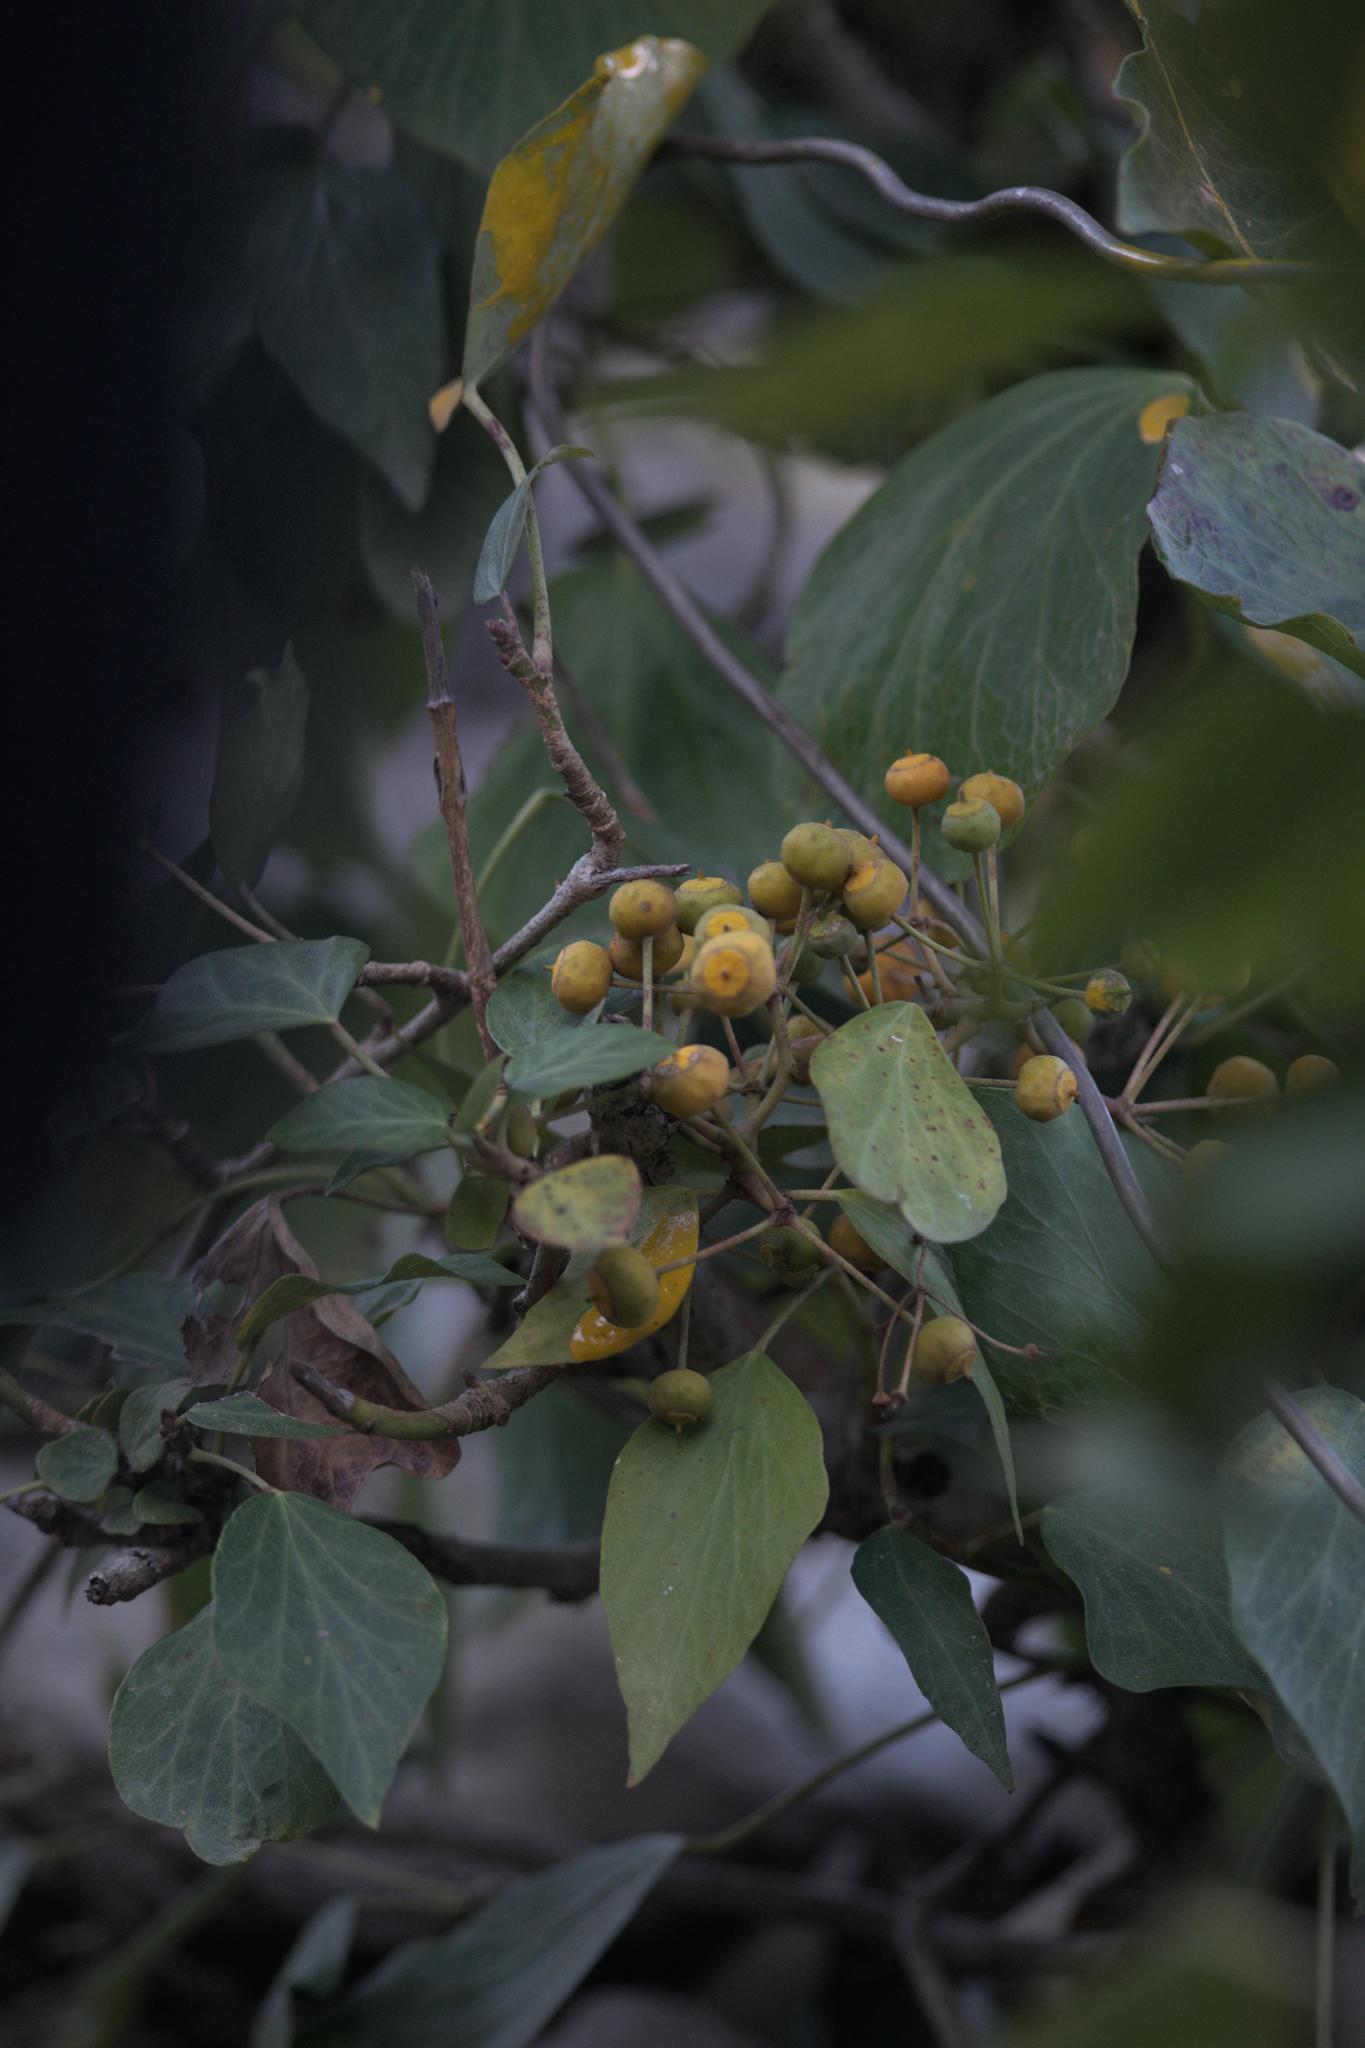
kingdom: Plantae
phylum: Tracheophyta
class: Magnoliopsida
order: Apiales
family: Araliaceae
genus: Hedera
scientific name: Hedera nepalensis
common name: Himalayan ivy
